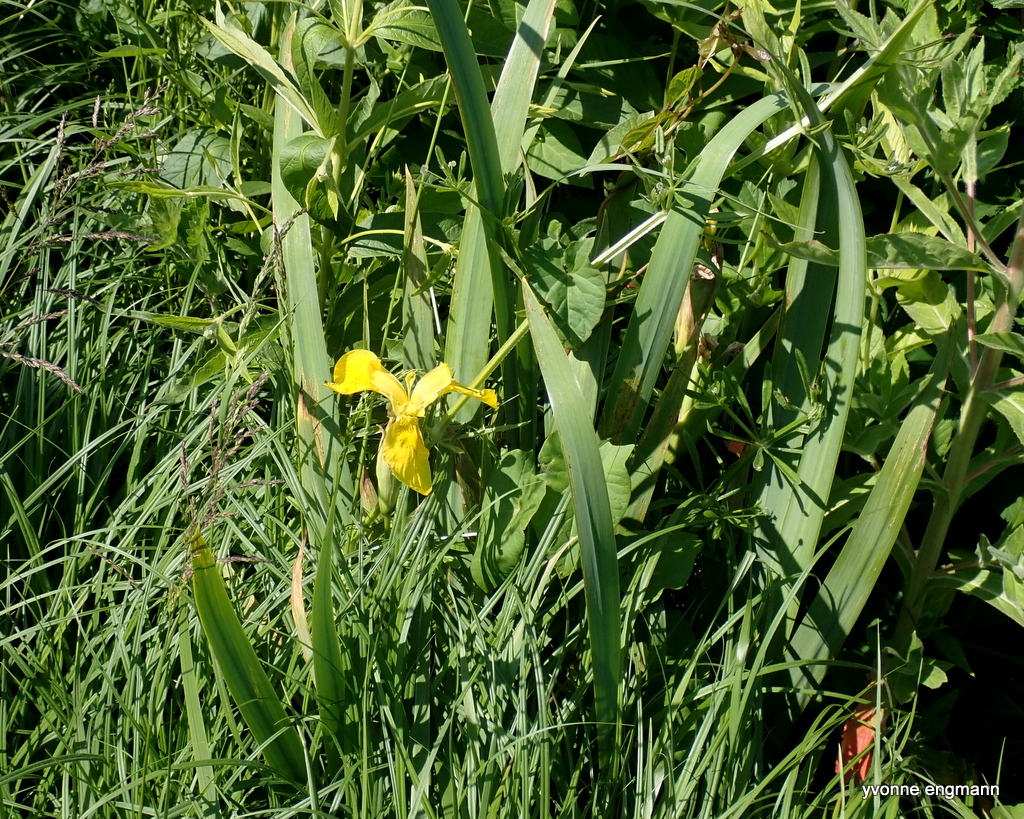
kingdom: Plantae
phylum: Tracheophyta
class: Liliopsida
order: Asparagales
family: Iridaceae
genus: Iris
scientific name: Iris pseudacorus
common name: Yellow flag
